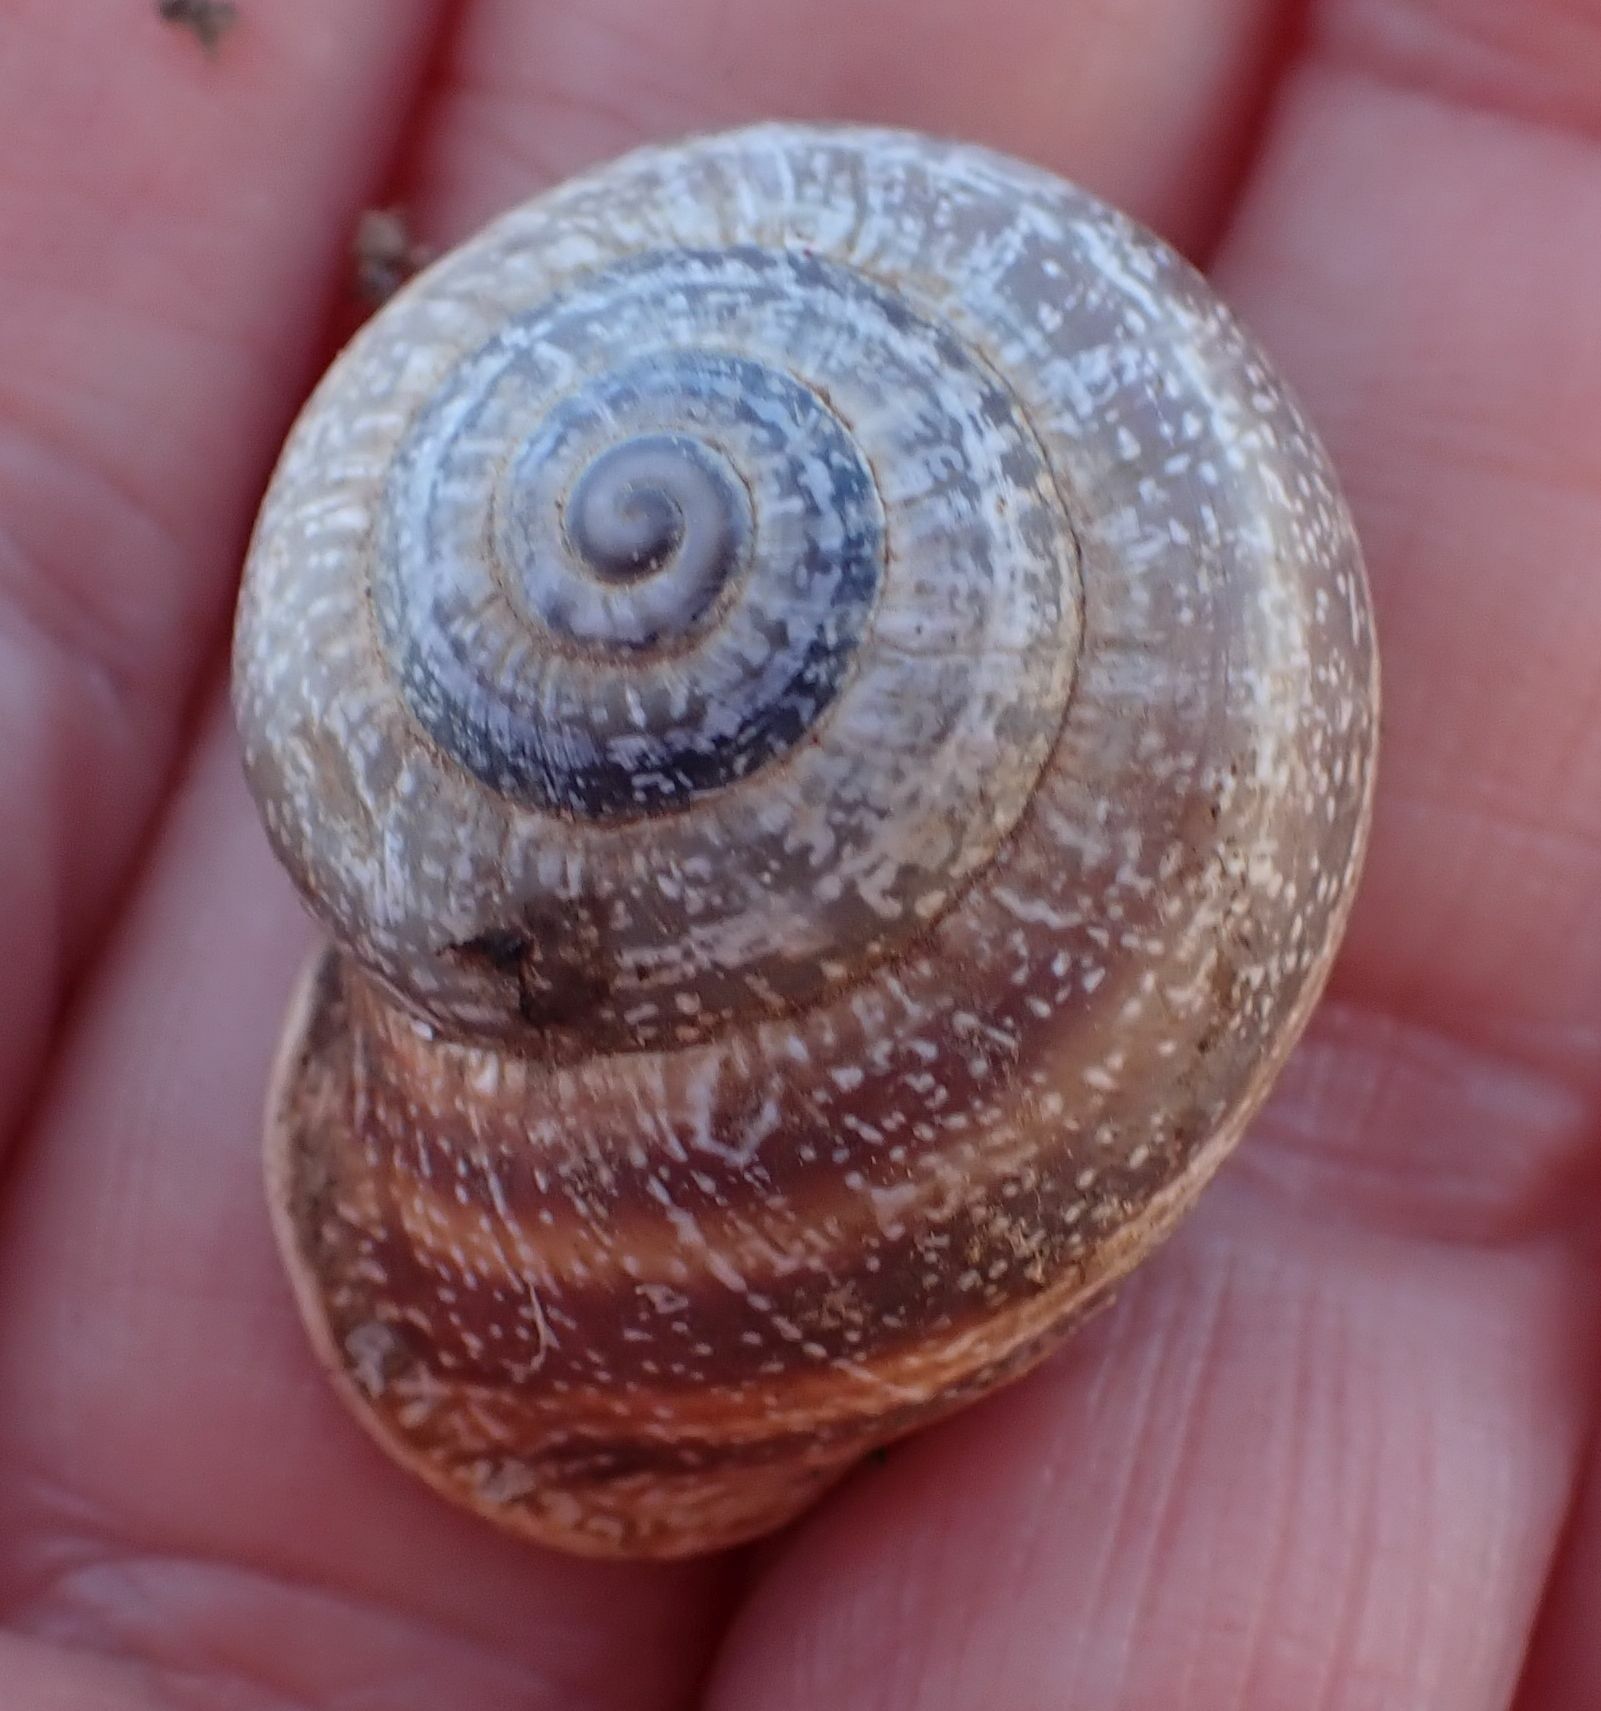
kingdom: Animalia
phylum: Mollusca
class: Gastropoda
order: Stylommatophora
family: Helicidae
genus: Otala
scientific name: Otala punctata
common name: Milk snail
